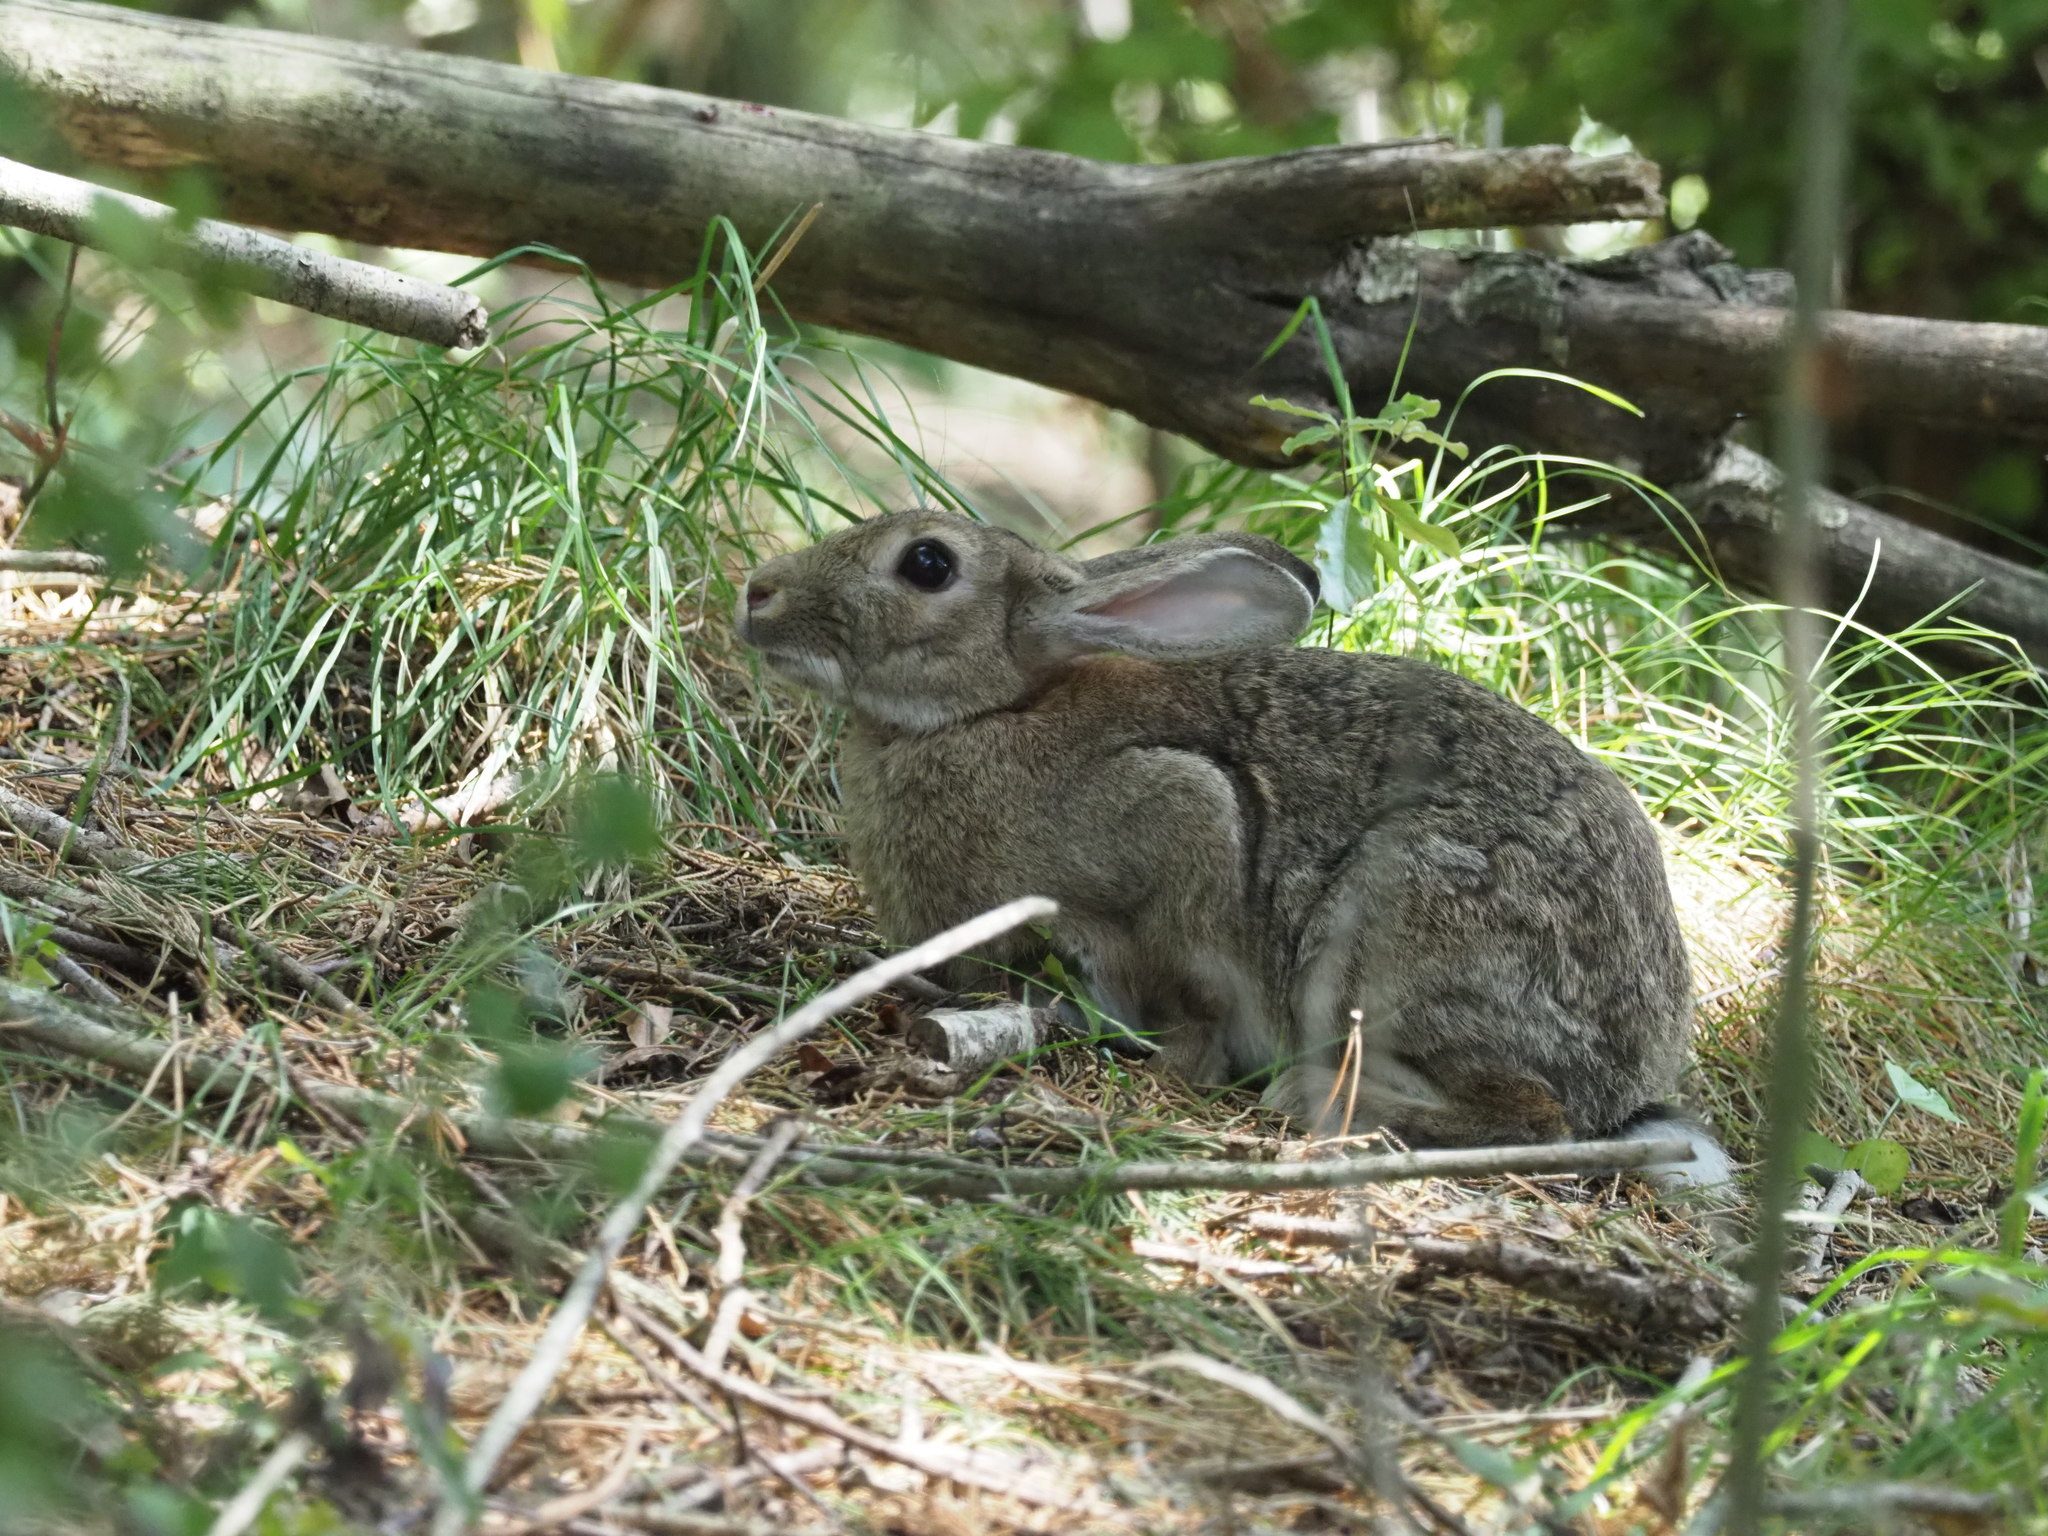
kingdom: Animalia
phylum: Chordata
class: Mammalia
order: Lagomorpha
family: Leporidae
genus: Oryctolagus
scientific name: Oryctolagus cuniculus
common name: European rabbit
